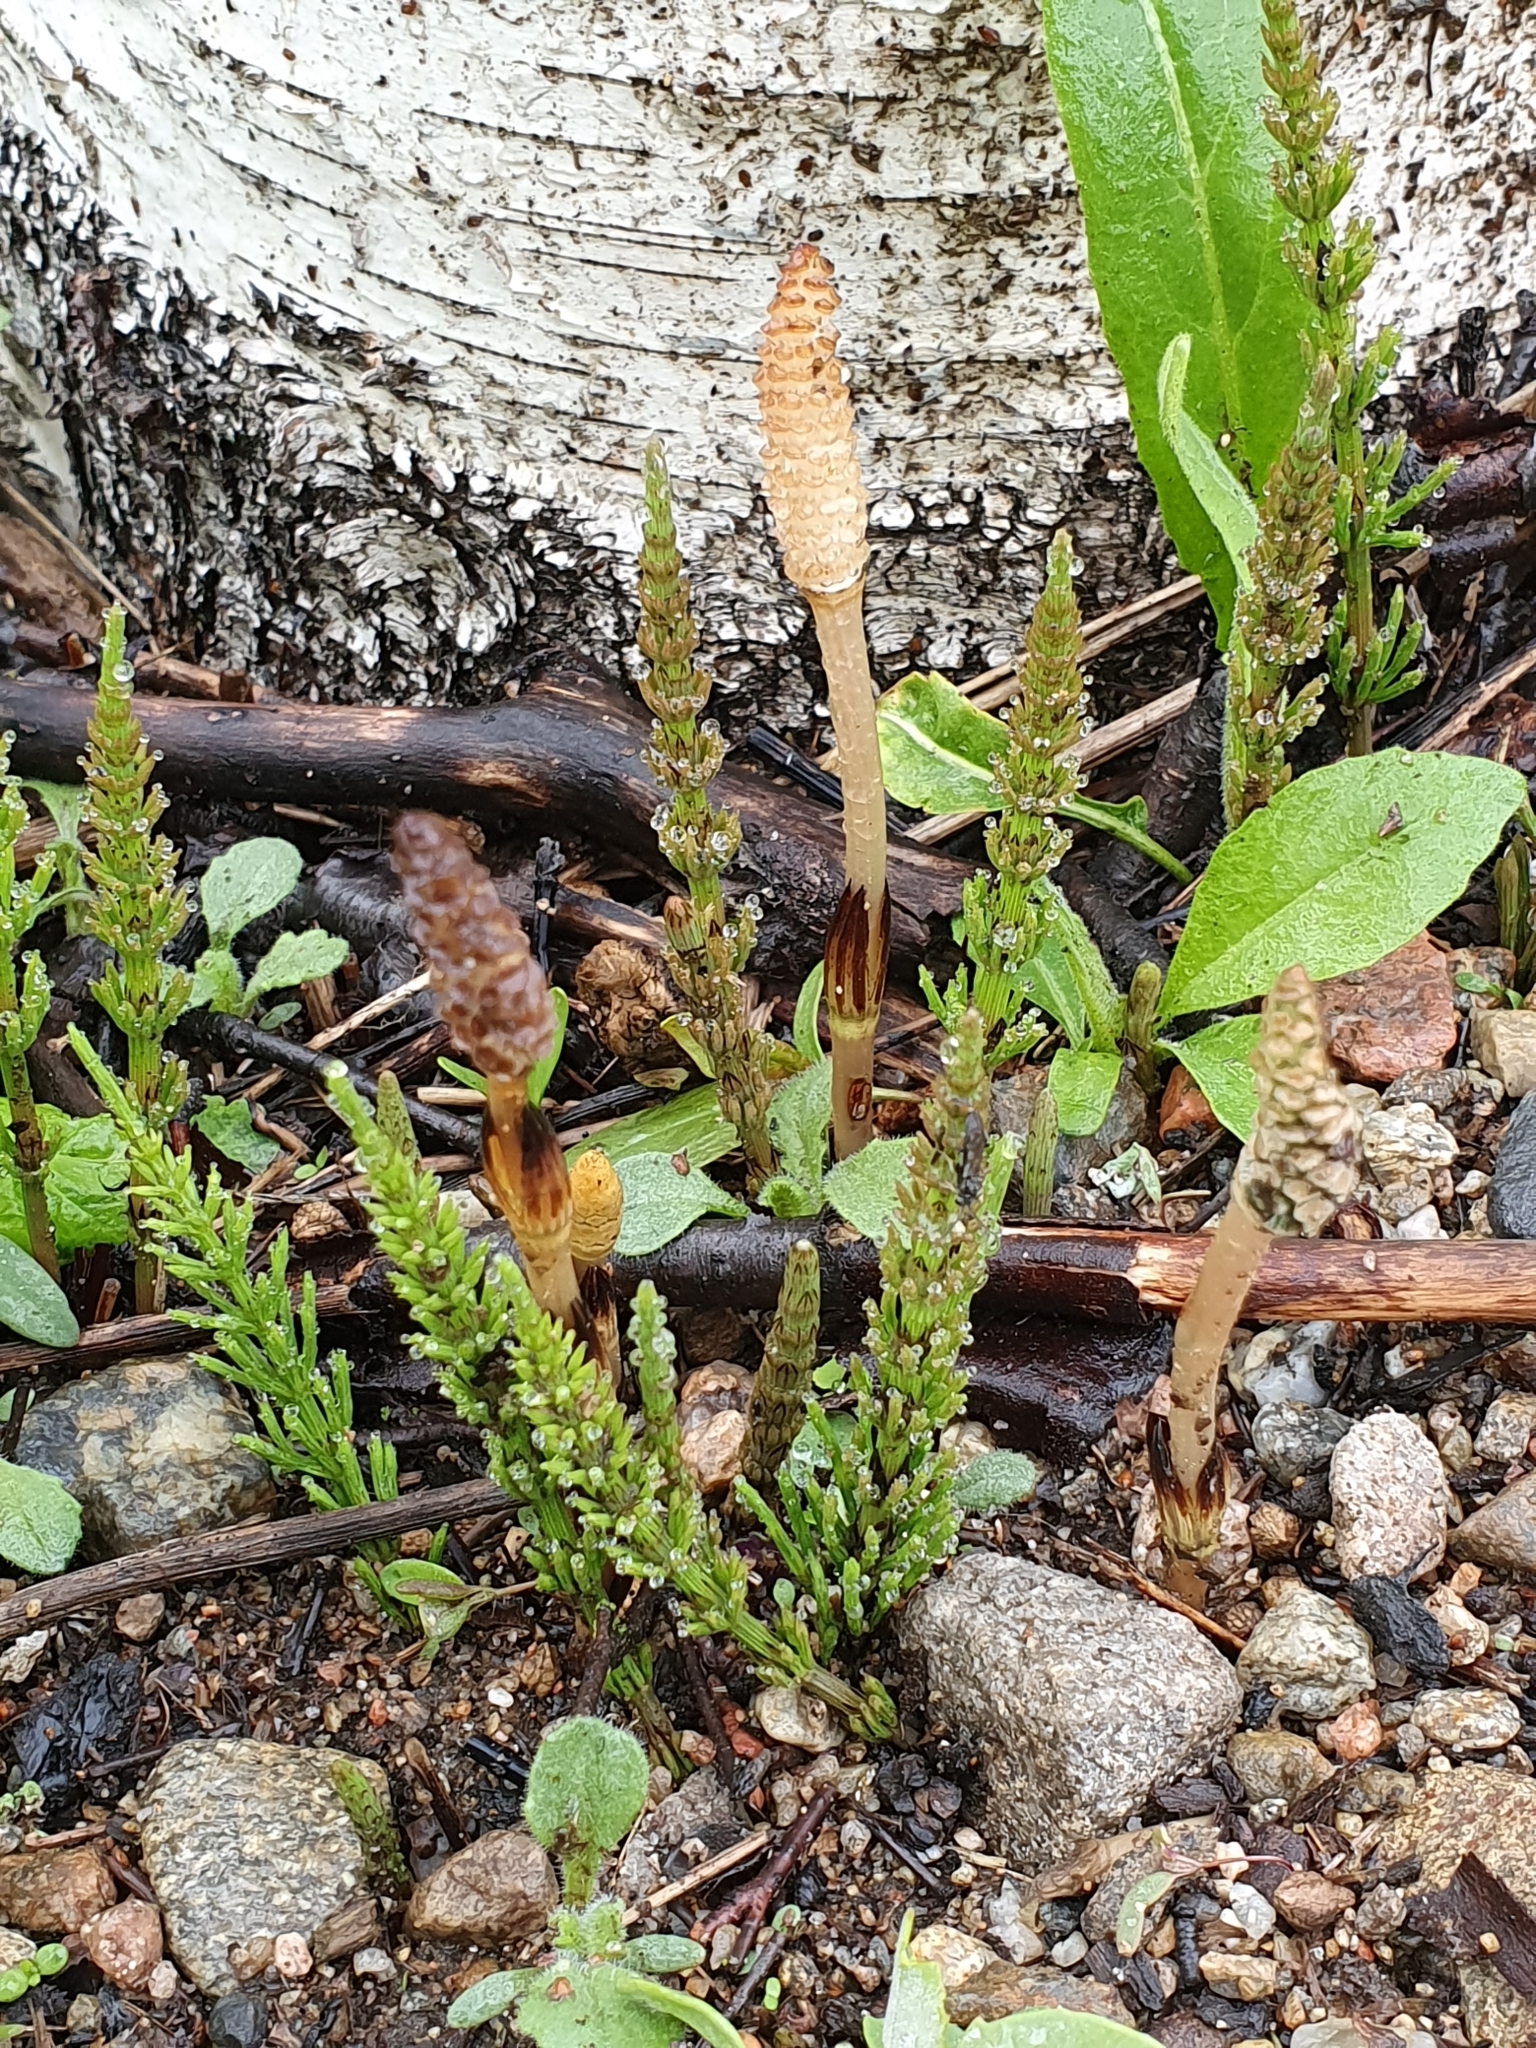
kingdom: Plantae
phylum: Tracheophyta
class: Polypodiopsida
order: Equisetales
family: Equisetaceae
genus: Equisetum
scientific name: Equisetum arvense
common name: Field horsetail
